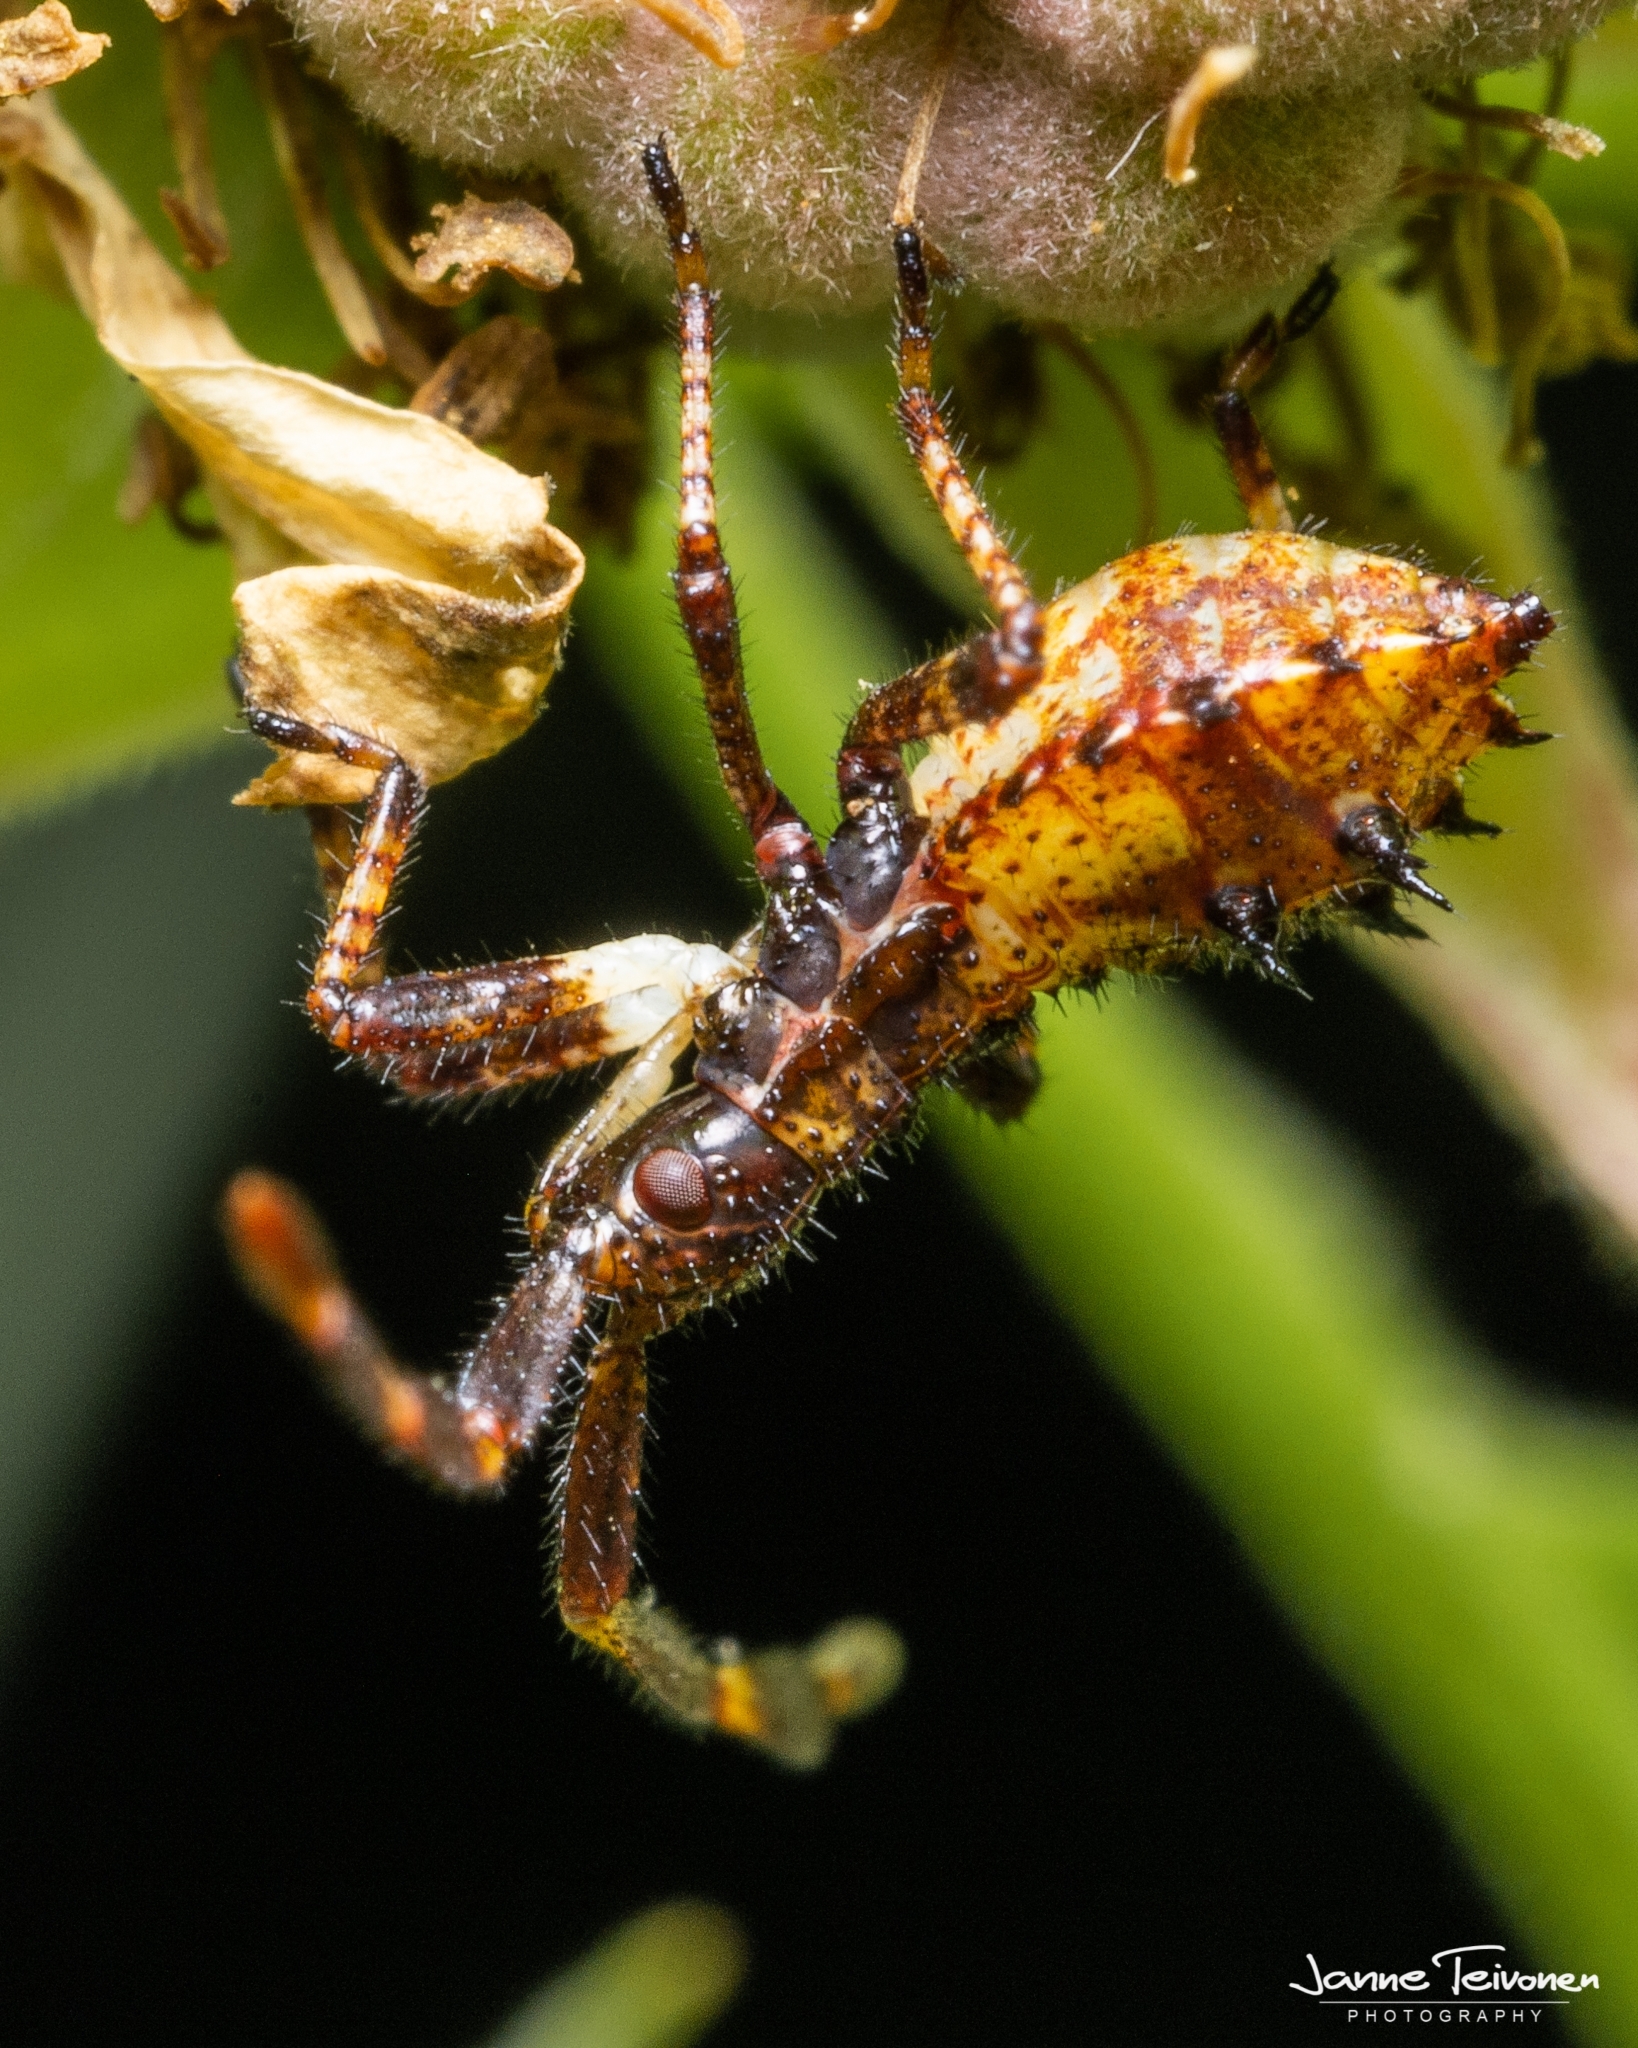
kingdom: Animalia
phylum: Arthropoda
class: Insecta
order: Hemiptera
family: Coreidae
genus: Coreus
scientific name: Coreus marginatus
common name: Dock bug
